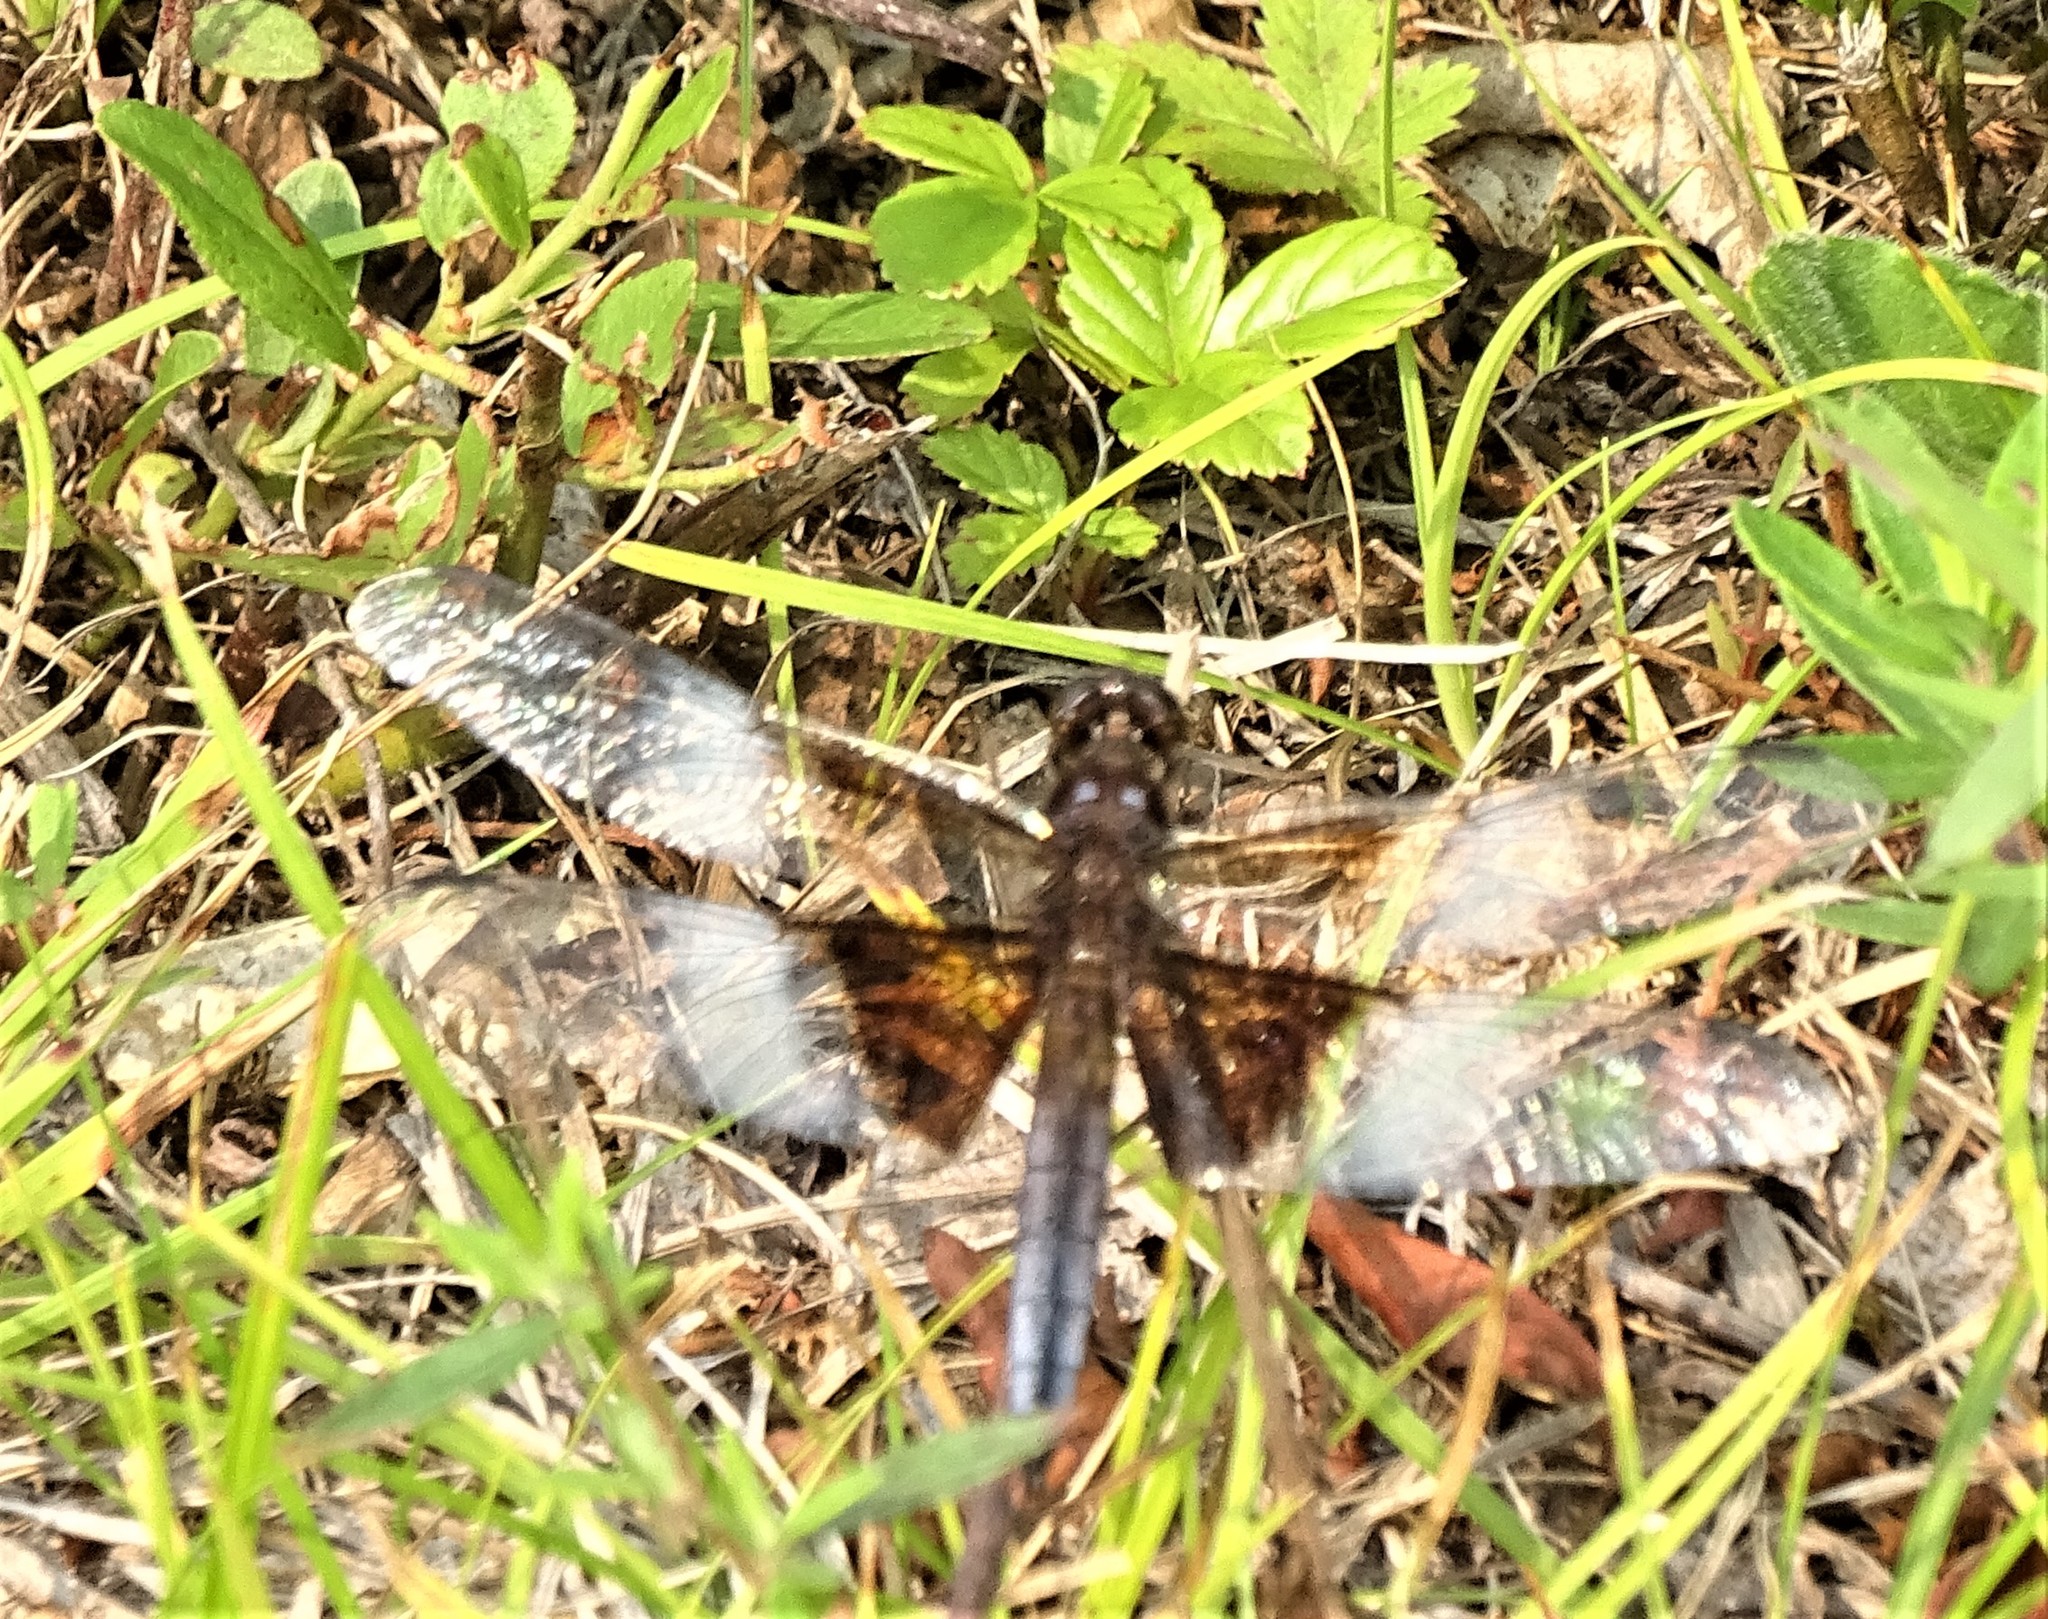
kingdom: Animalia
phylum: Arthropoda
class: Insecta
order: Odonata
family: Libellulidae
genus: Libellula
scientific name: Libellula luctuosa
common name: Widow skimmer
